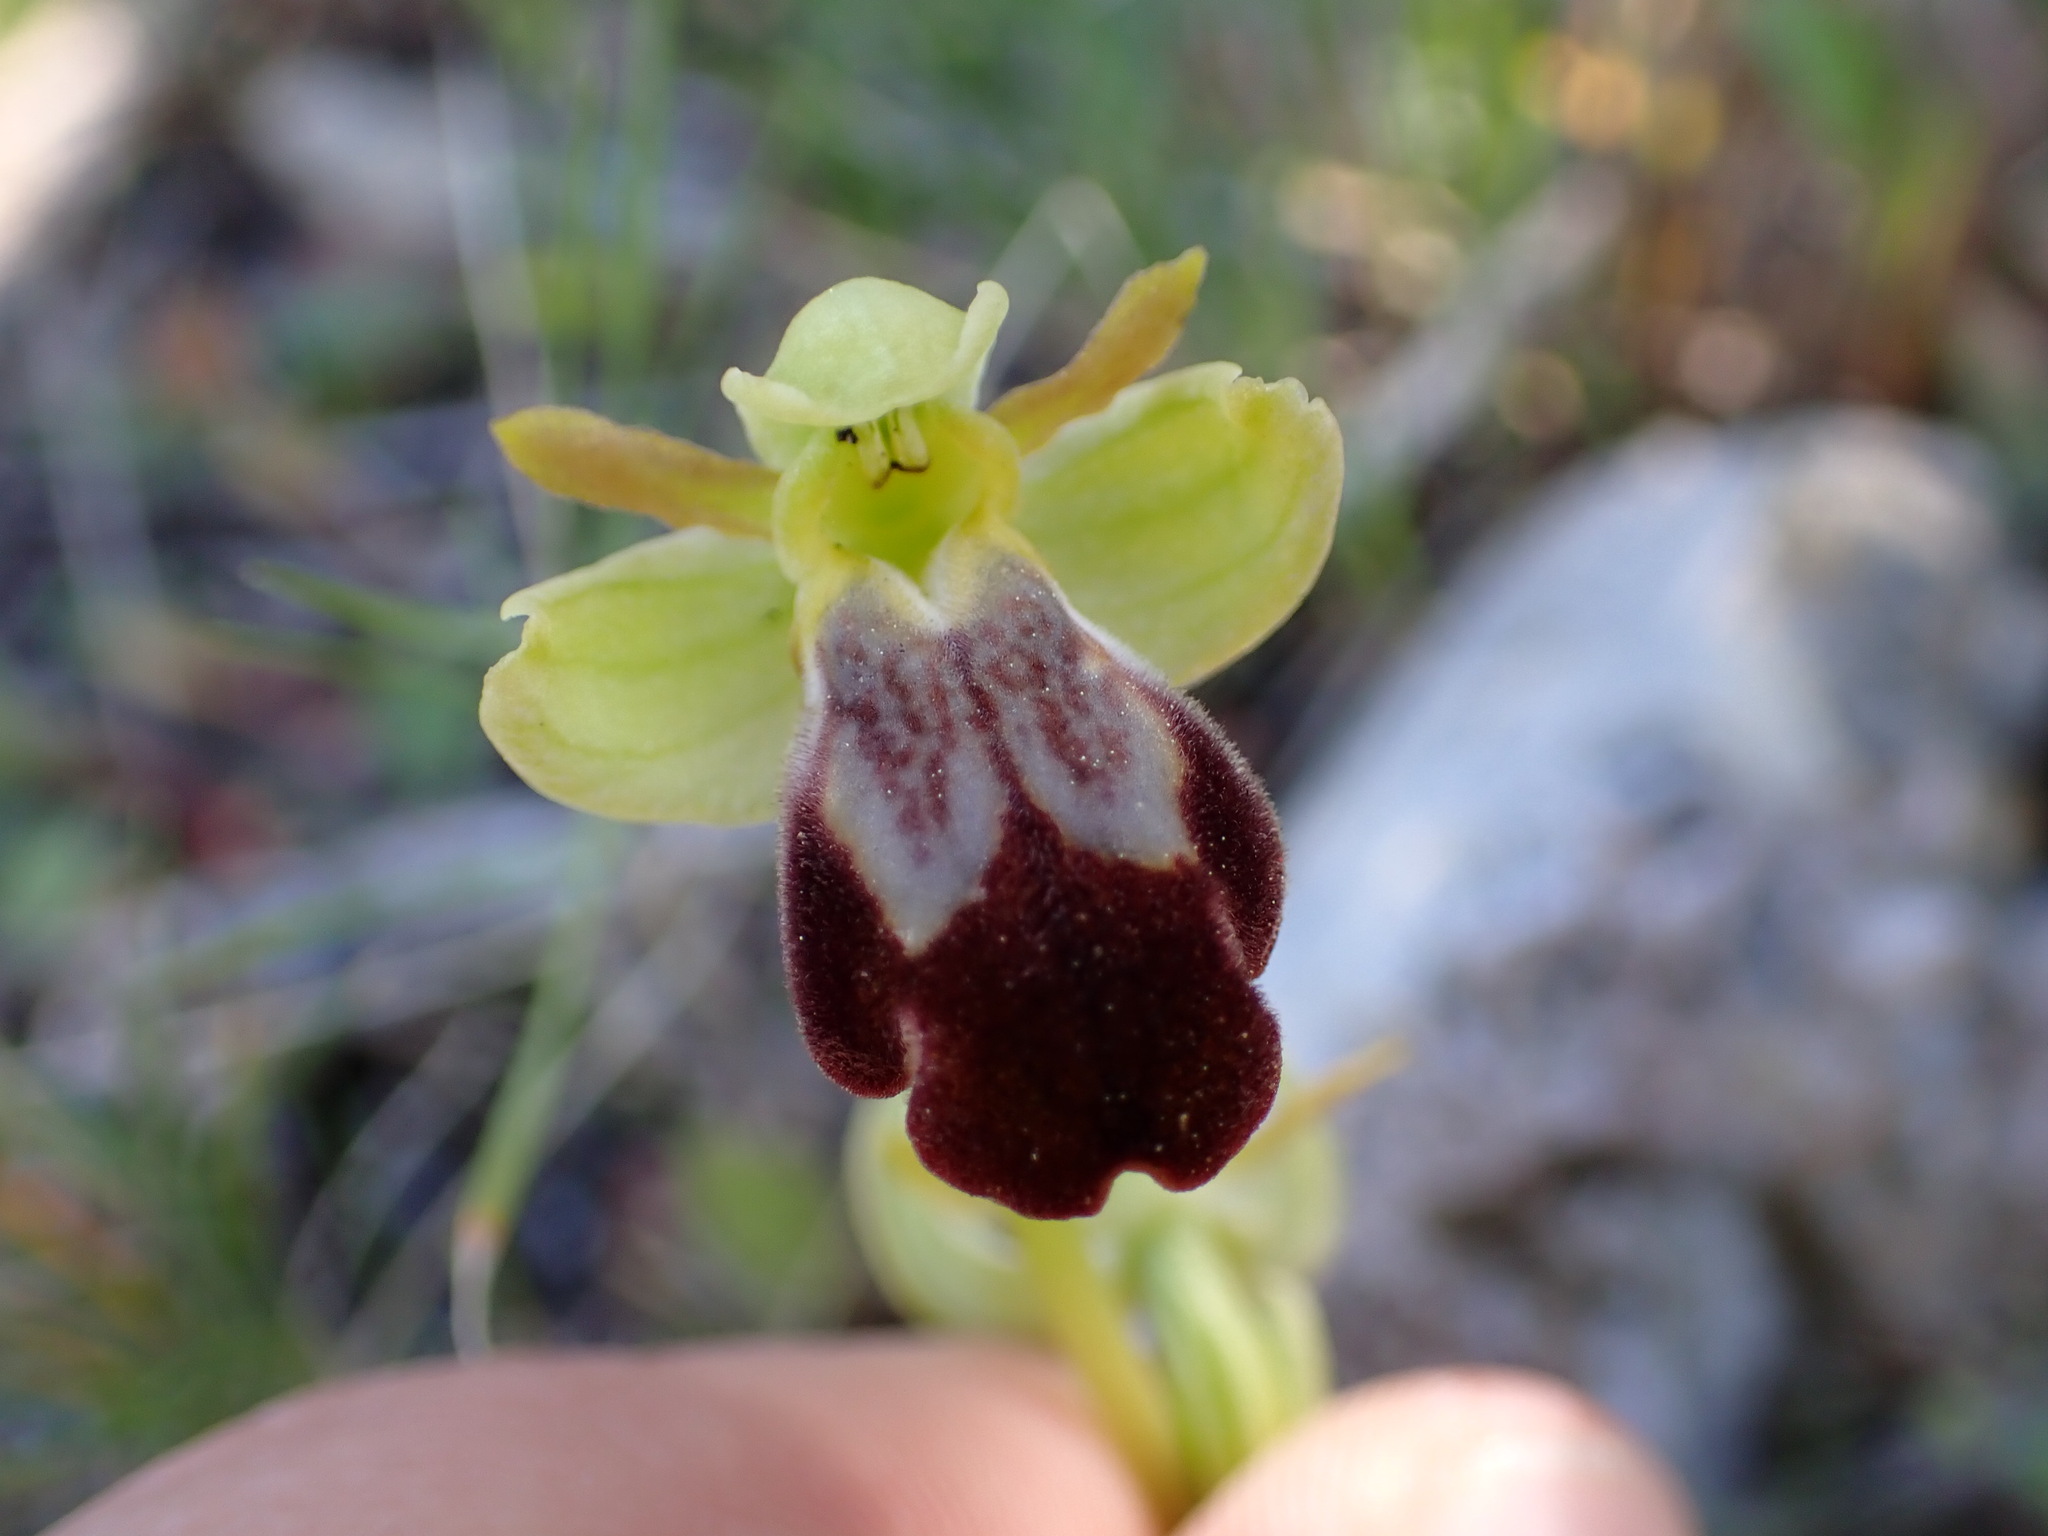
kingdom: Plantae
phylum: Tracheophyta
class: Liliopsida
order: Asparagales
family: Orchidaceae
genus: Ophrys
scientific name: Ophrys fusca
